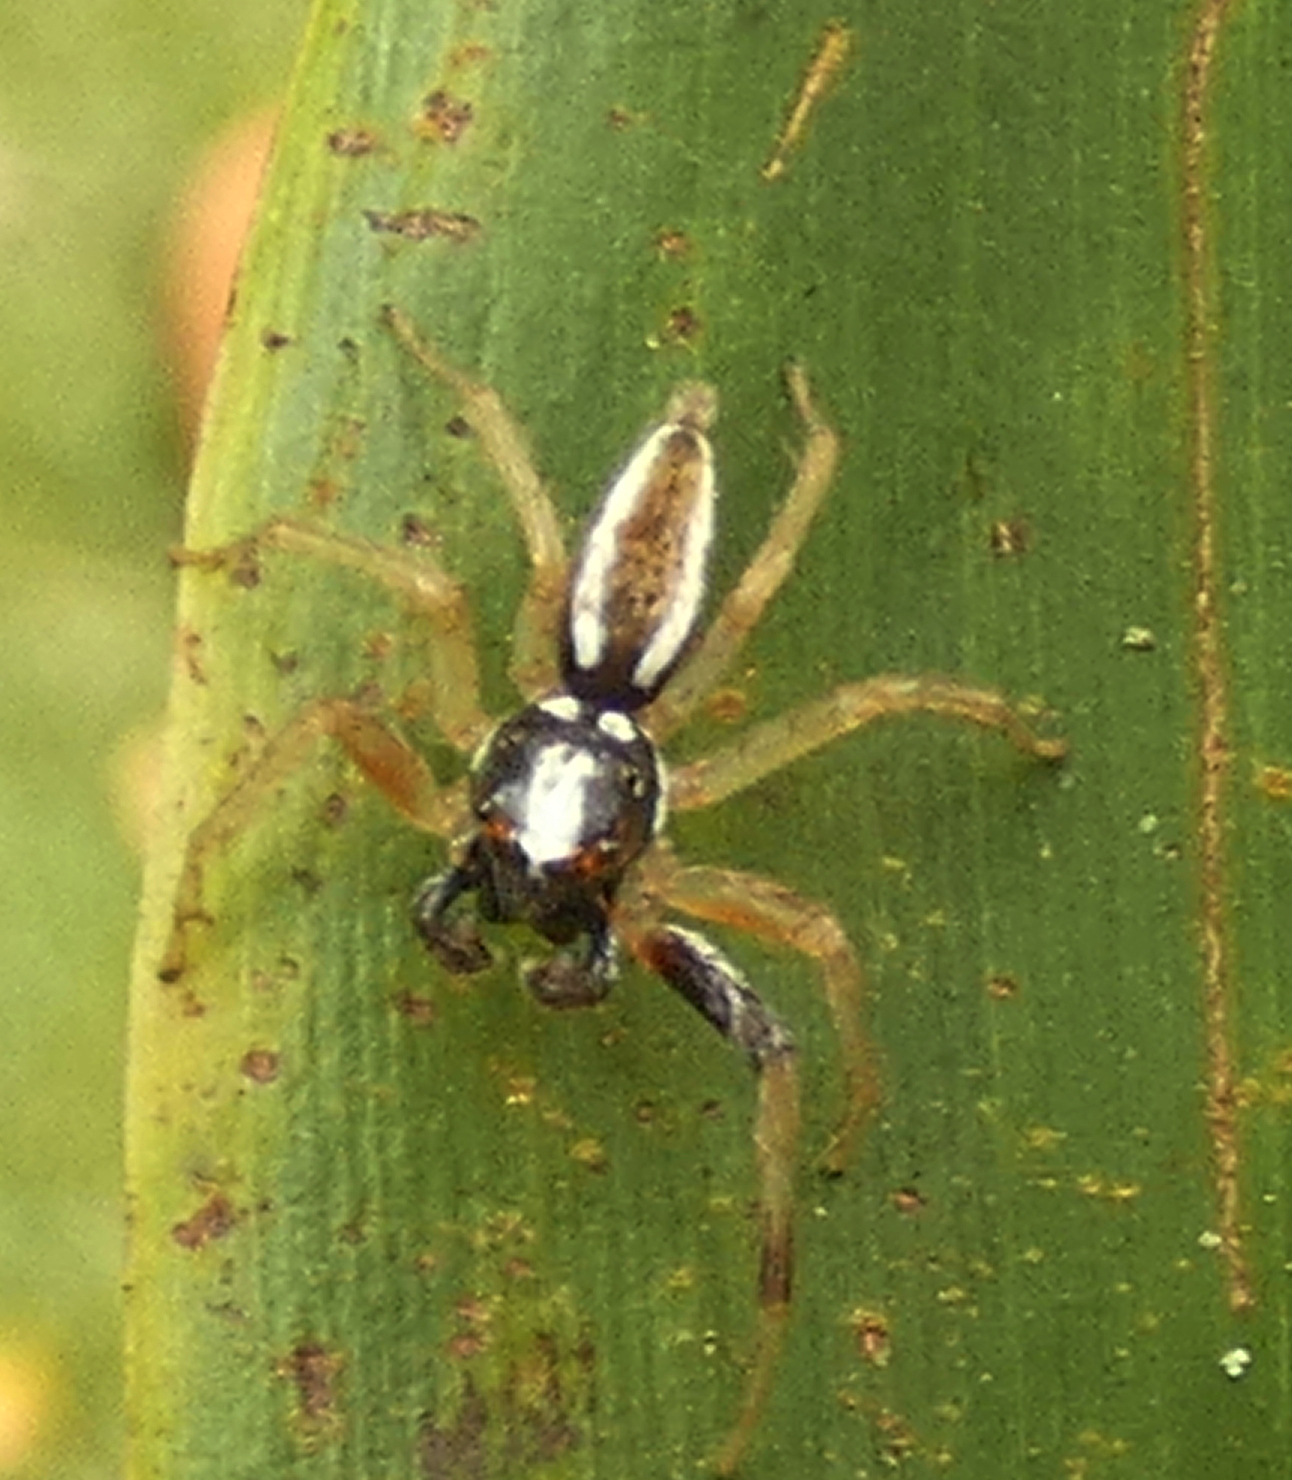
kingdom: Animalia
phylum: Arthropoda
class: Arachnida
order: Araneae
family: Salticidae
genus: Chira
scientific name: Chira spinosa
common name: Jumping spiders
